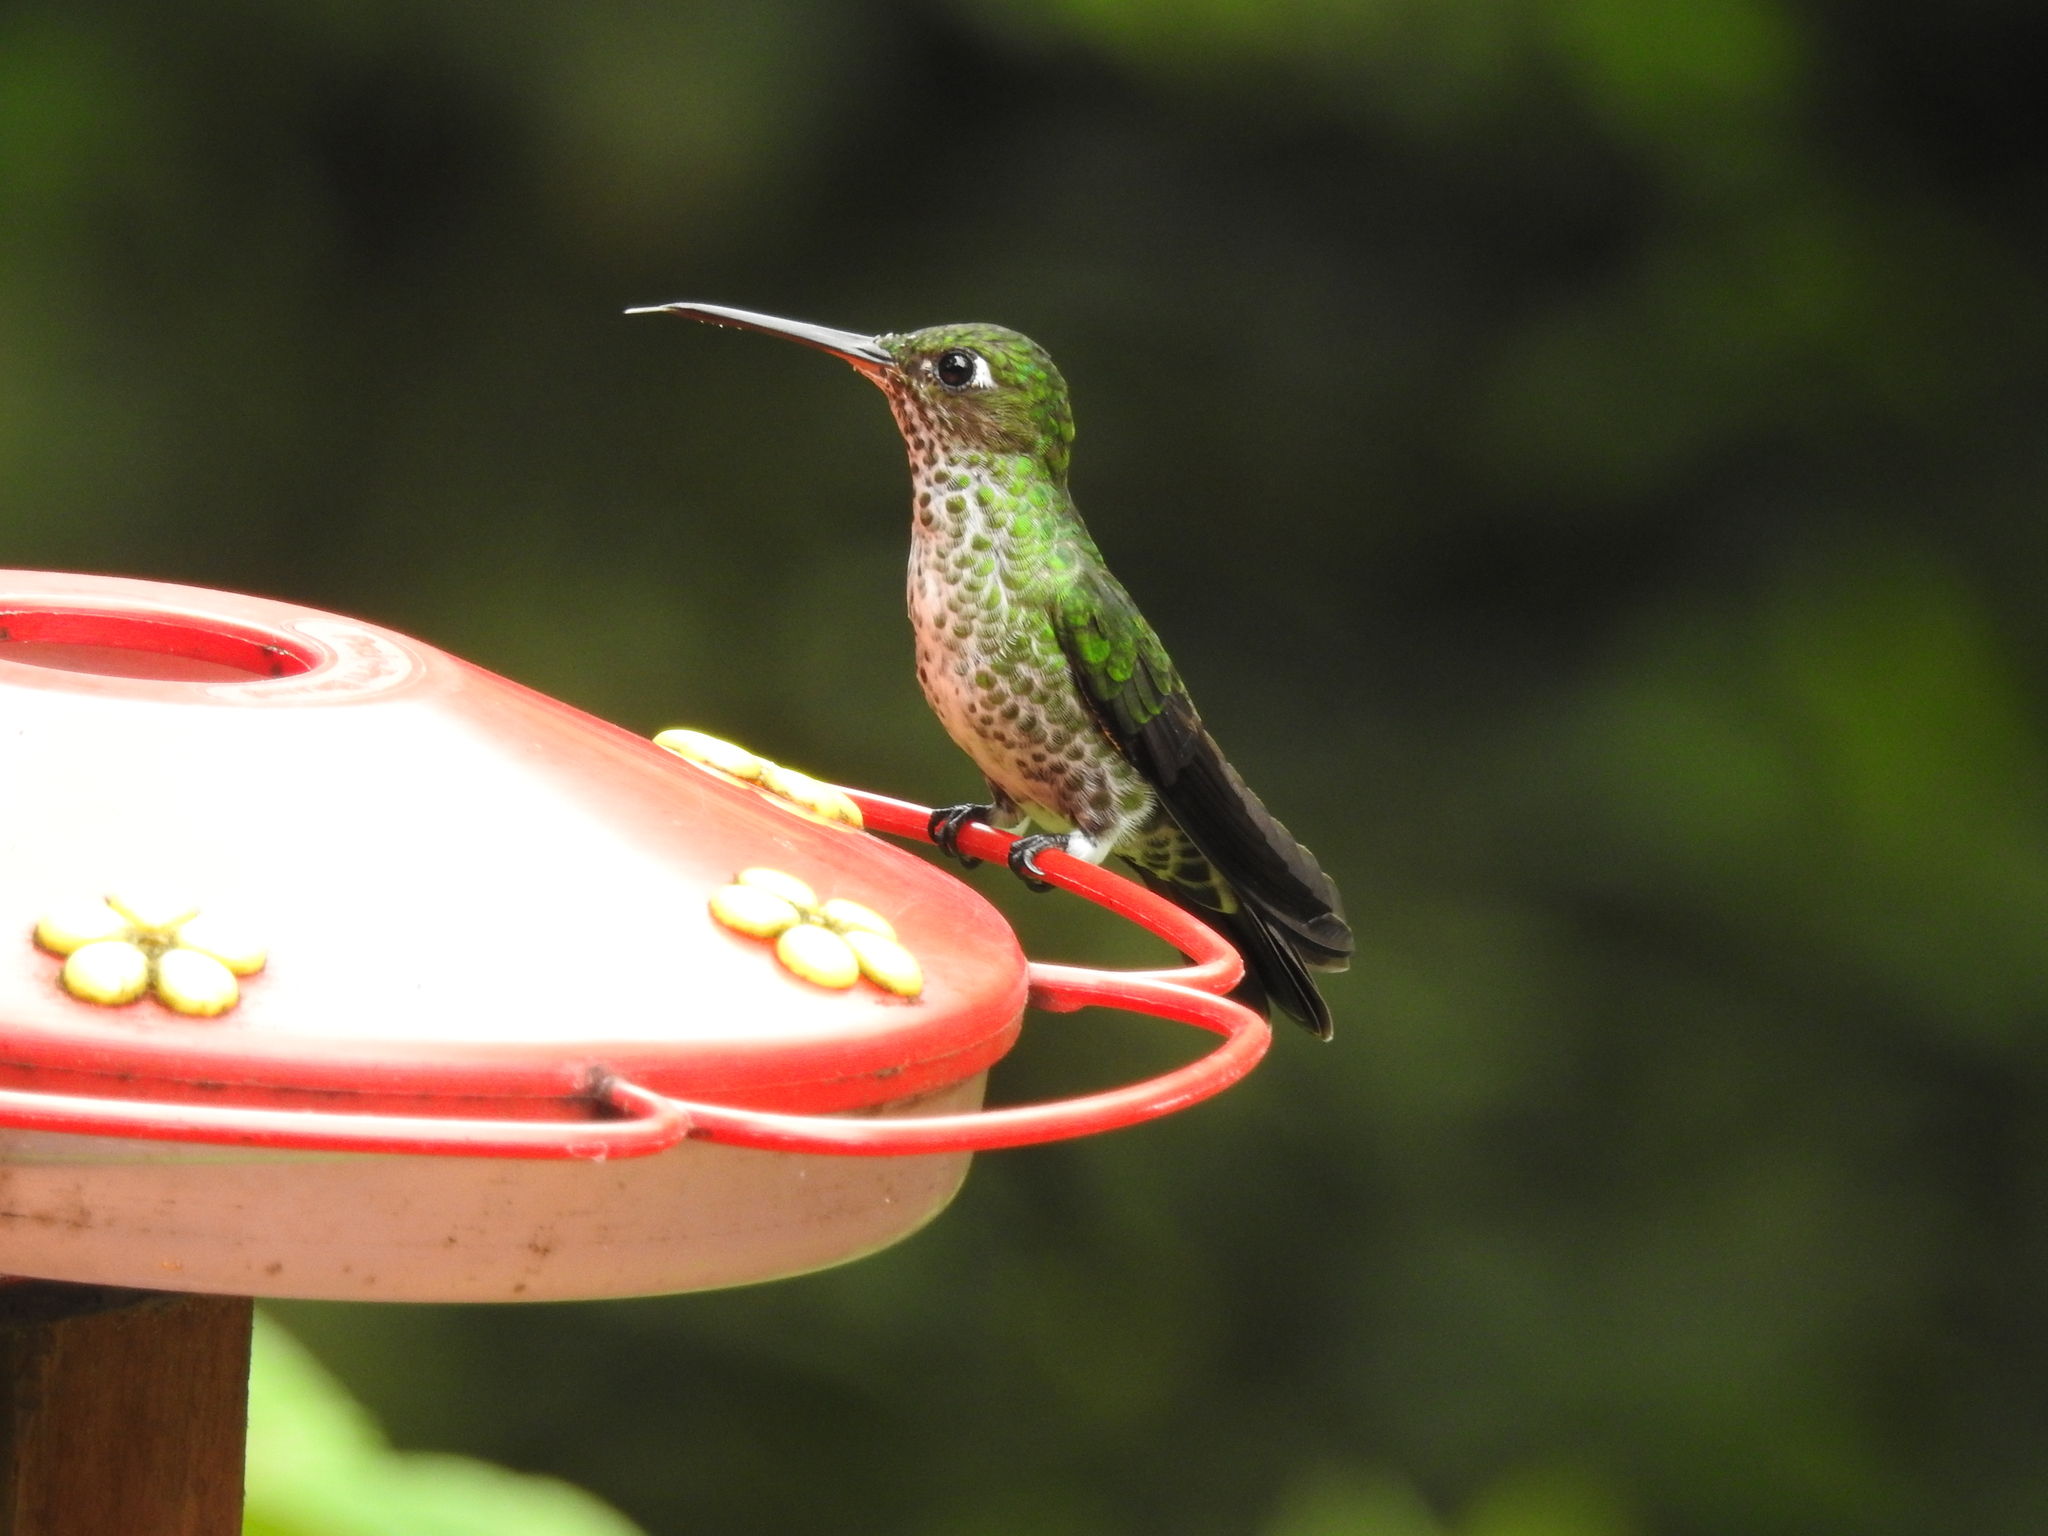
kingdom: Animalia
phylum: Chordata
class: Aves
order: Apodiformes
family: Trochilidae
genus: Taphrospilus
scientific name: Taphrospilus hypostictus
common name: Many-spotted hummingbird
